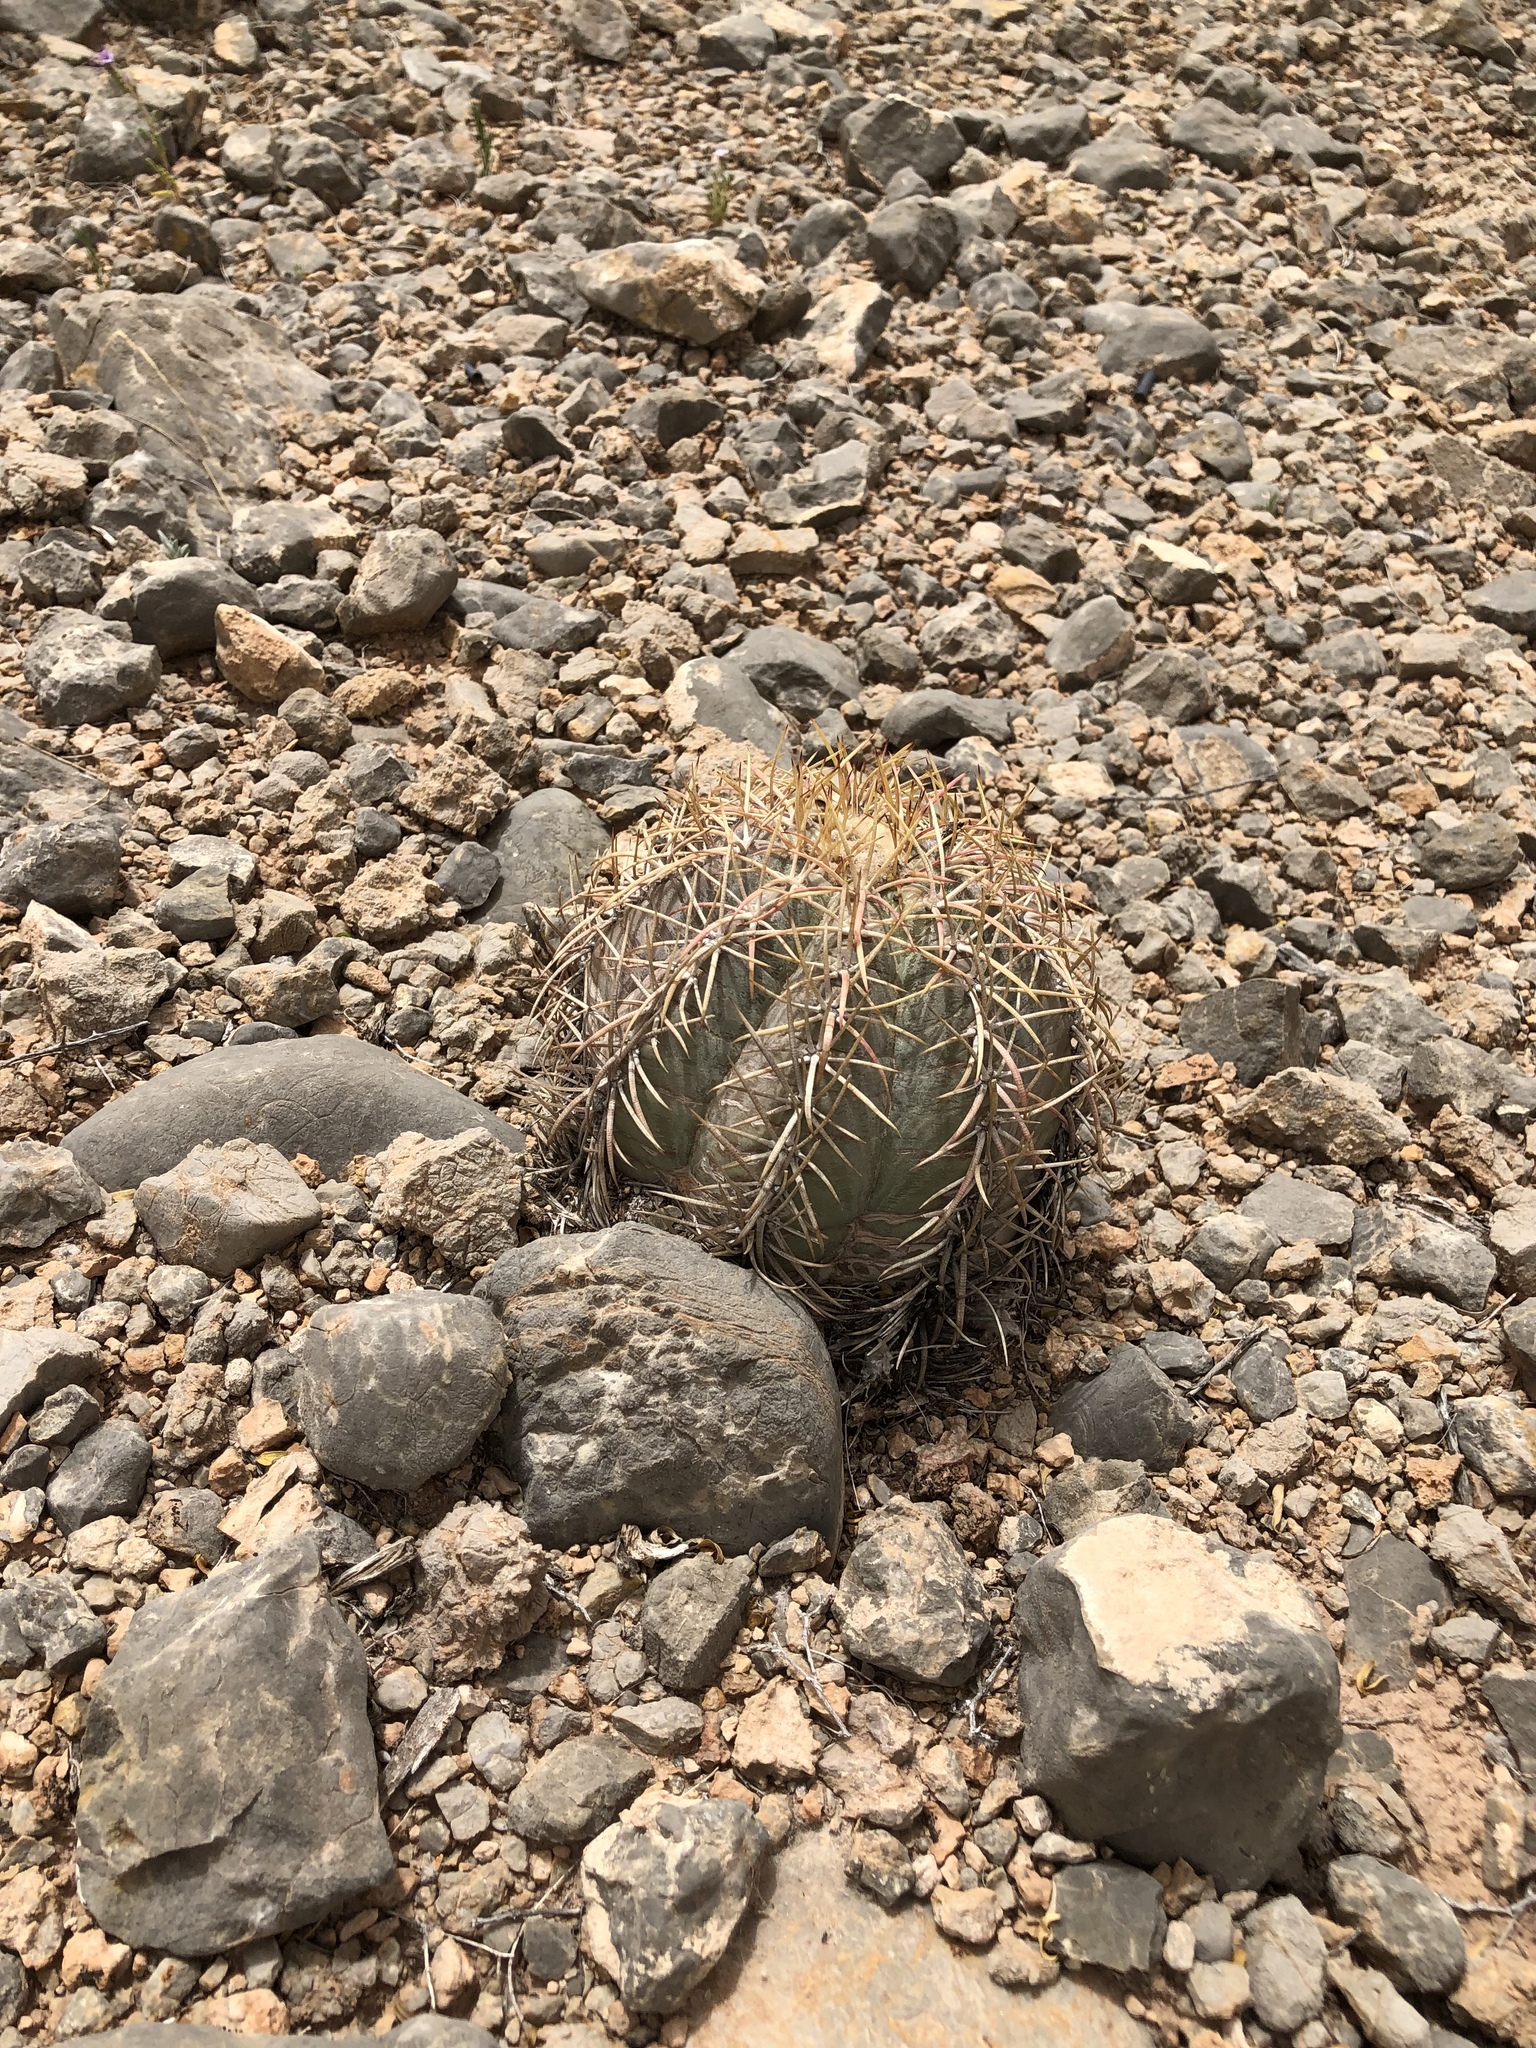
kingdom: Plantae
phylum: Tracheophyta
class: Magnoliopsida
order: Caryophyllales
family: Cactaceae
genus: Echinocactus
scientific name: Echinocactus horizonthalonius
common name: Devilshead
